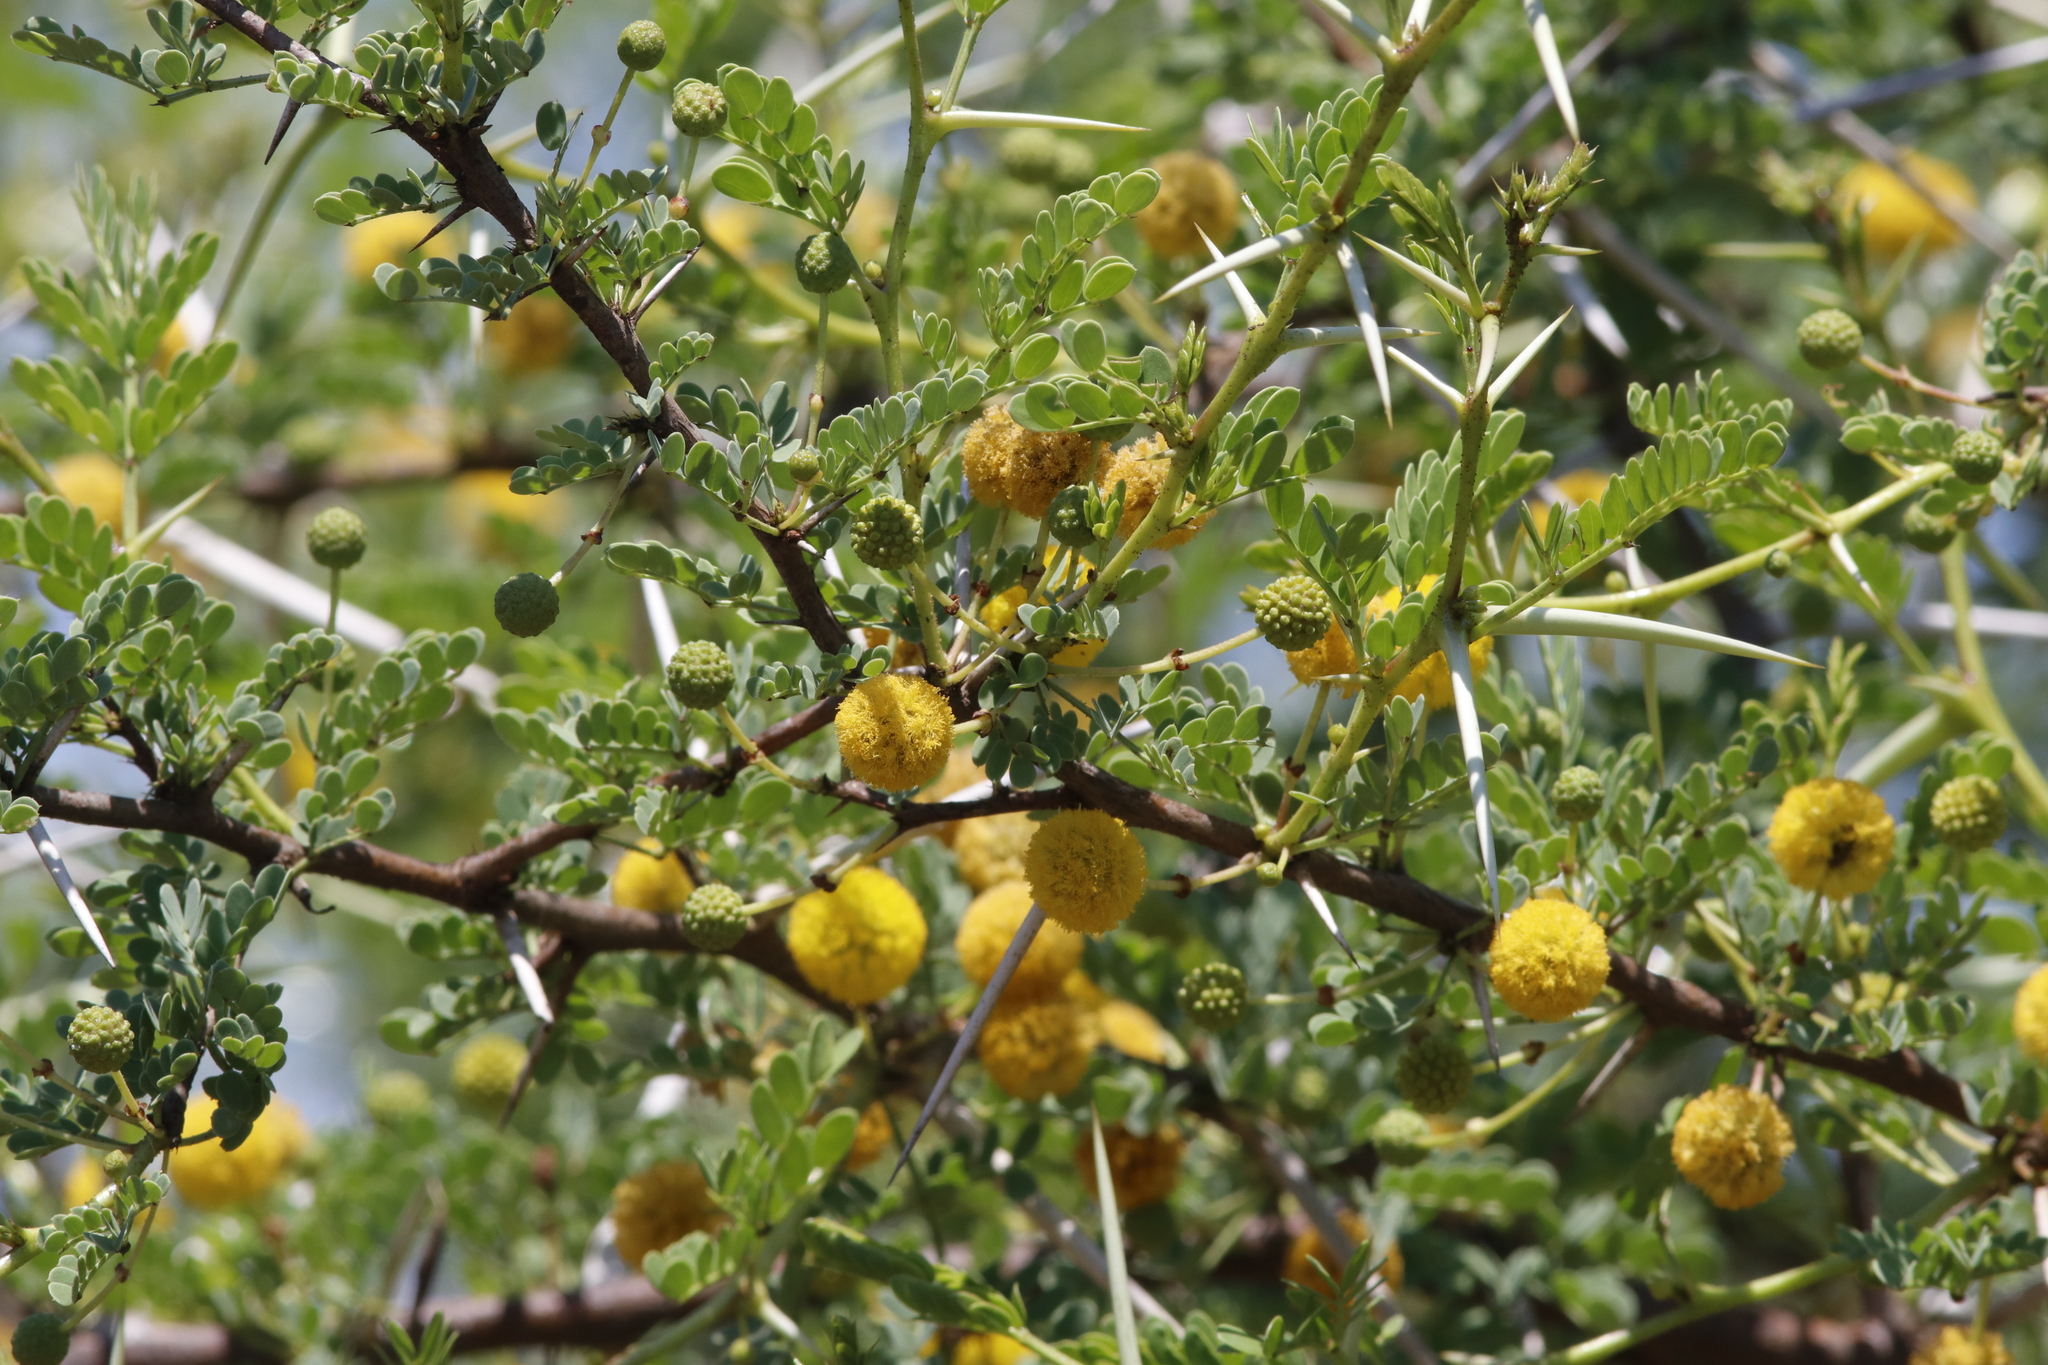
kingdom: Plantae
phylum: Tracheophyta
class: Magnoliopsida
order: Fabales
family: Fabaceae
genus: Vachellia
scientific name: Vachellia exuvialis
